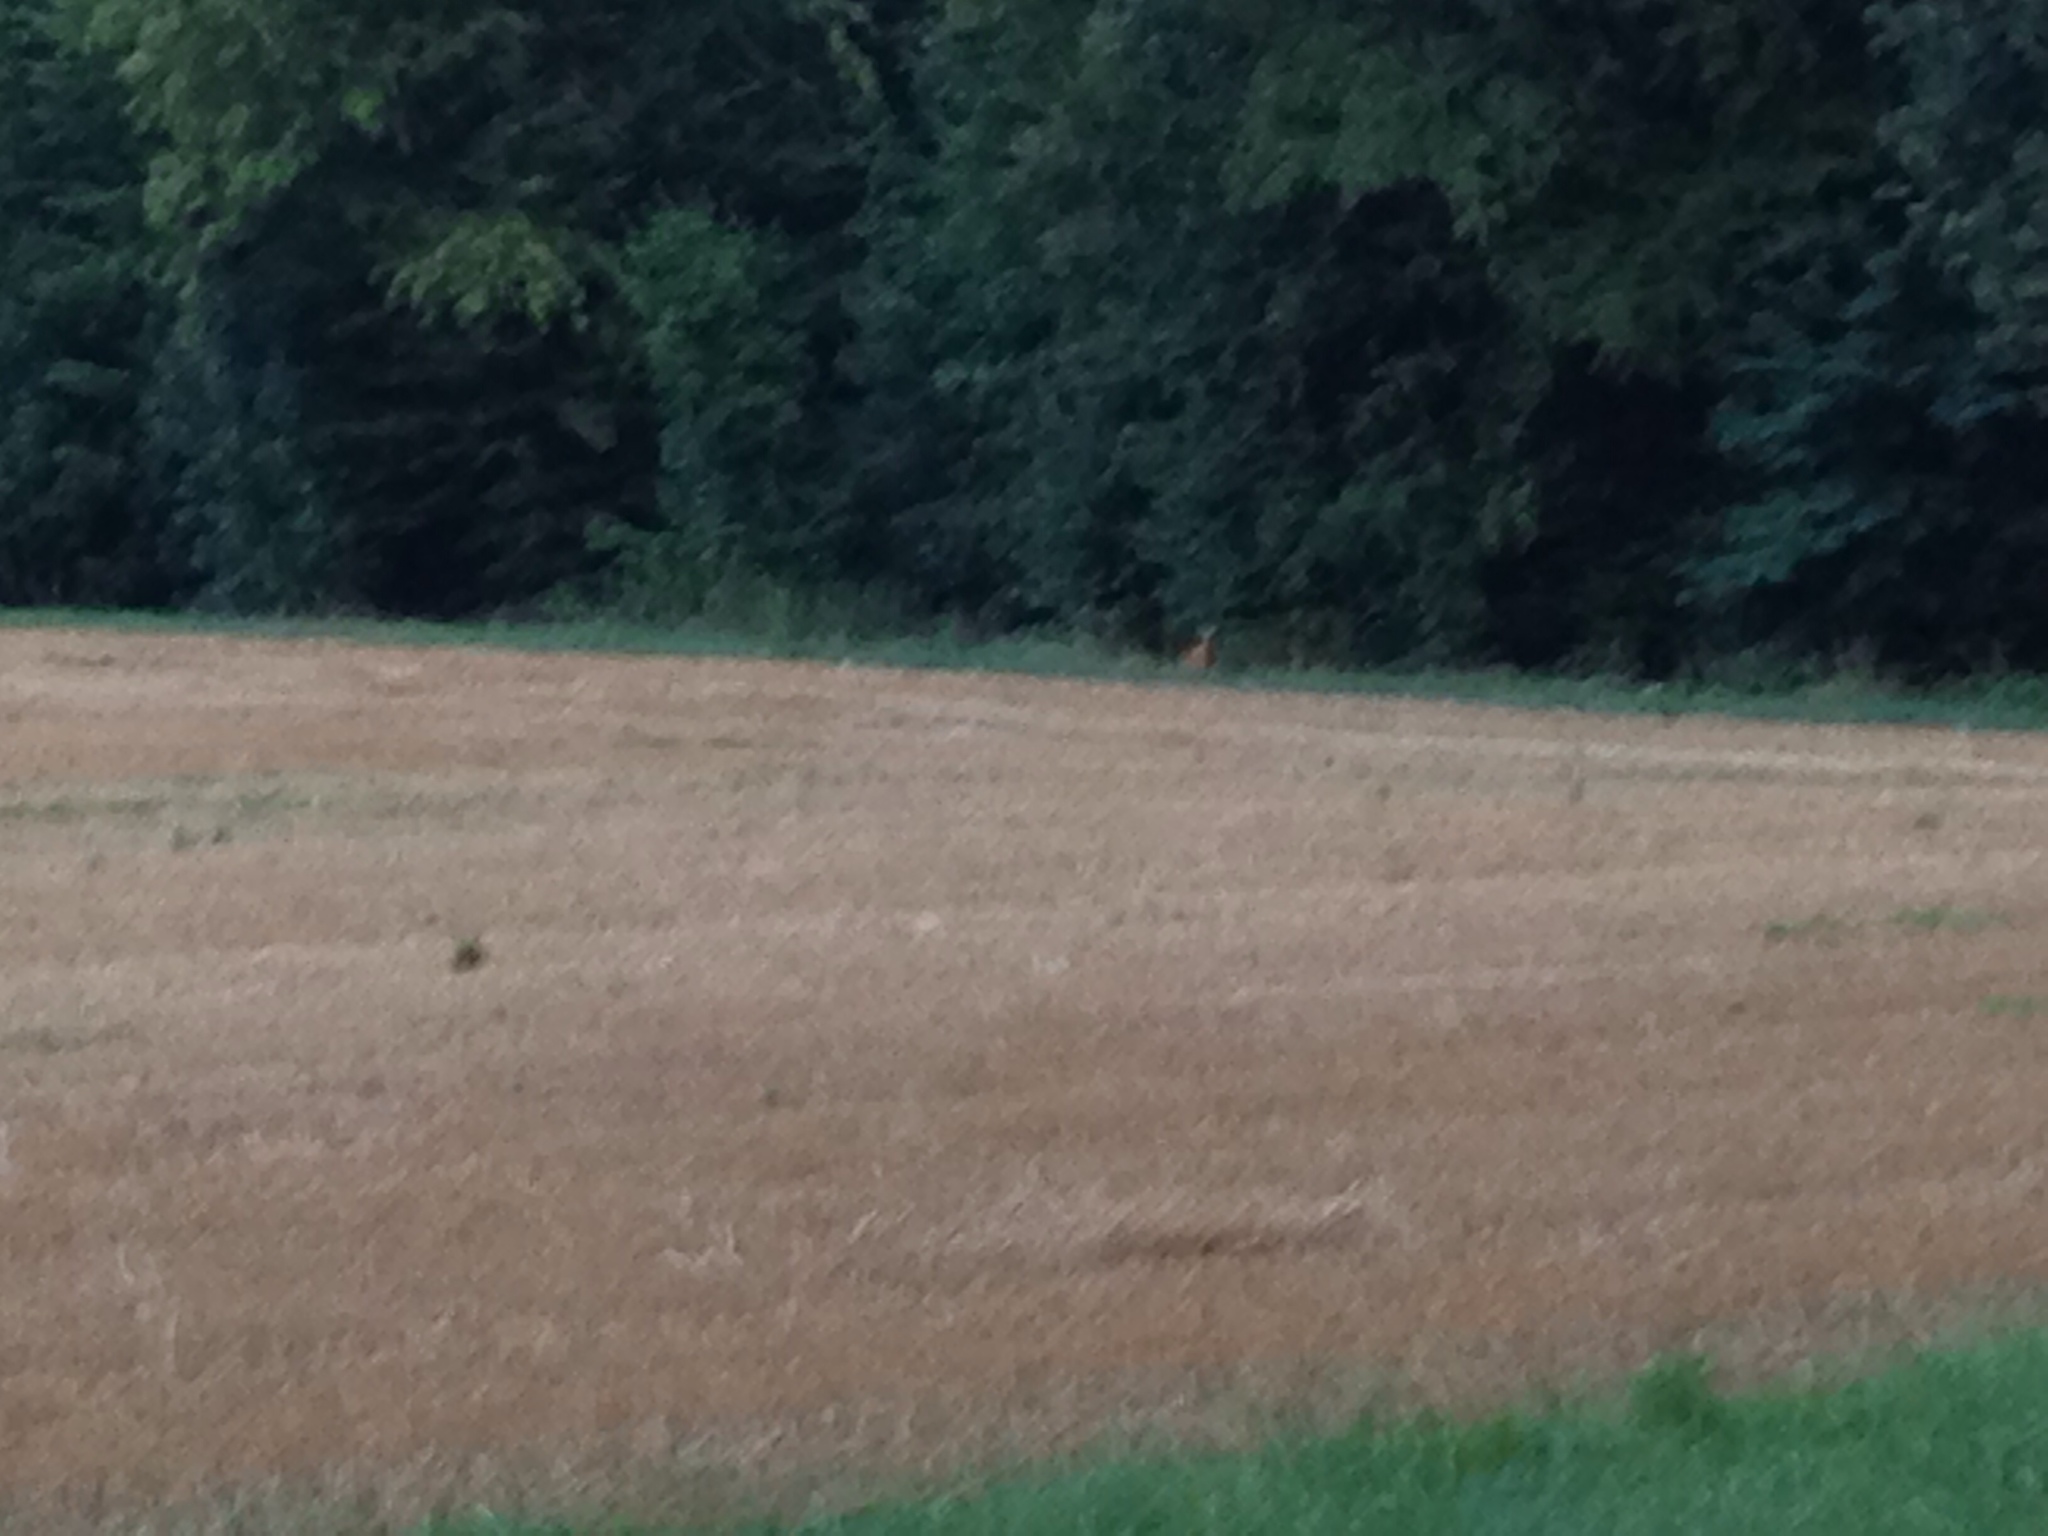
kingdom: Animalia
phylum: Chordata
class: Mammalia
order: Artiodactyla
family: Cervidae
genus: Capreolus
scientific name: Capreolus capreolus
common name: Western roe deer
